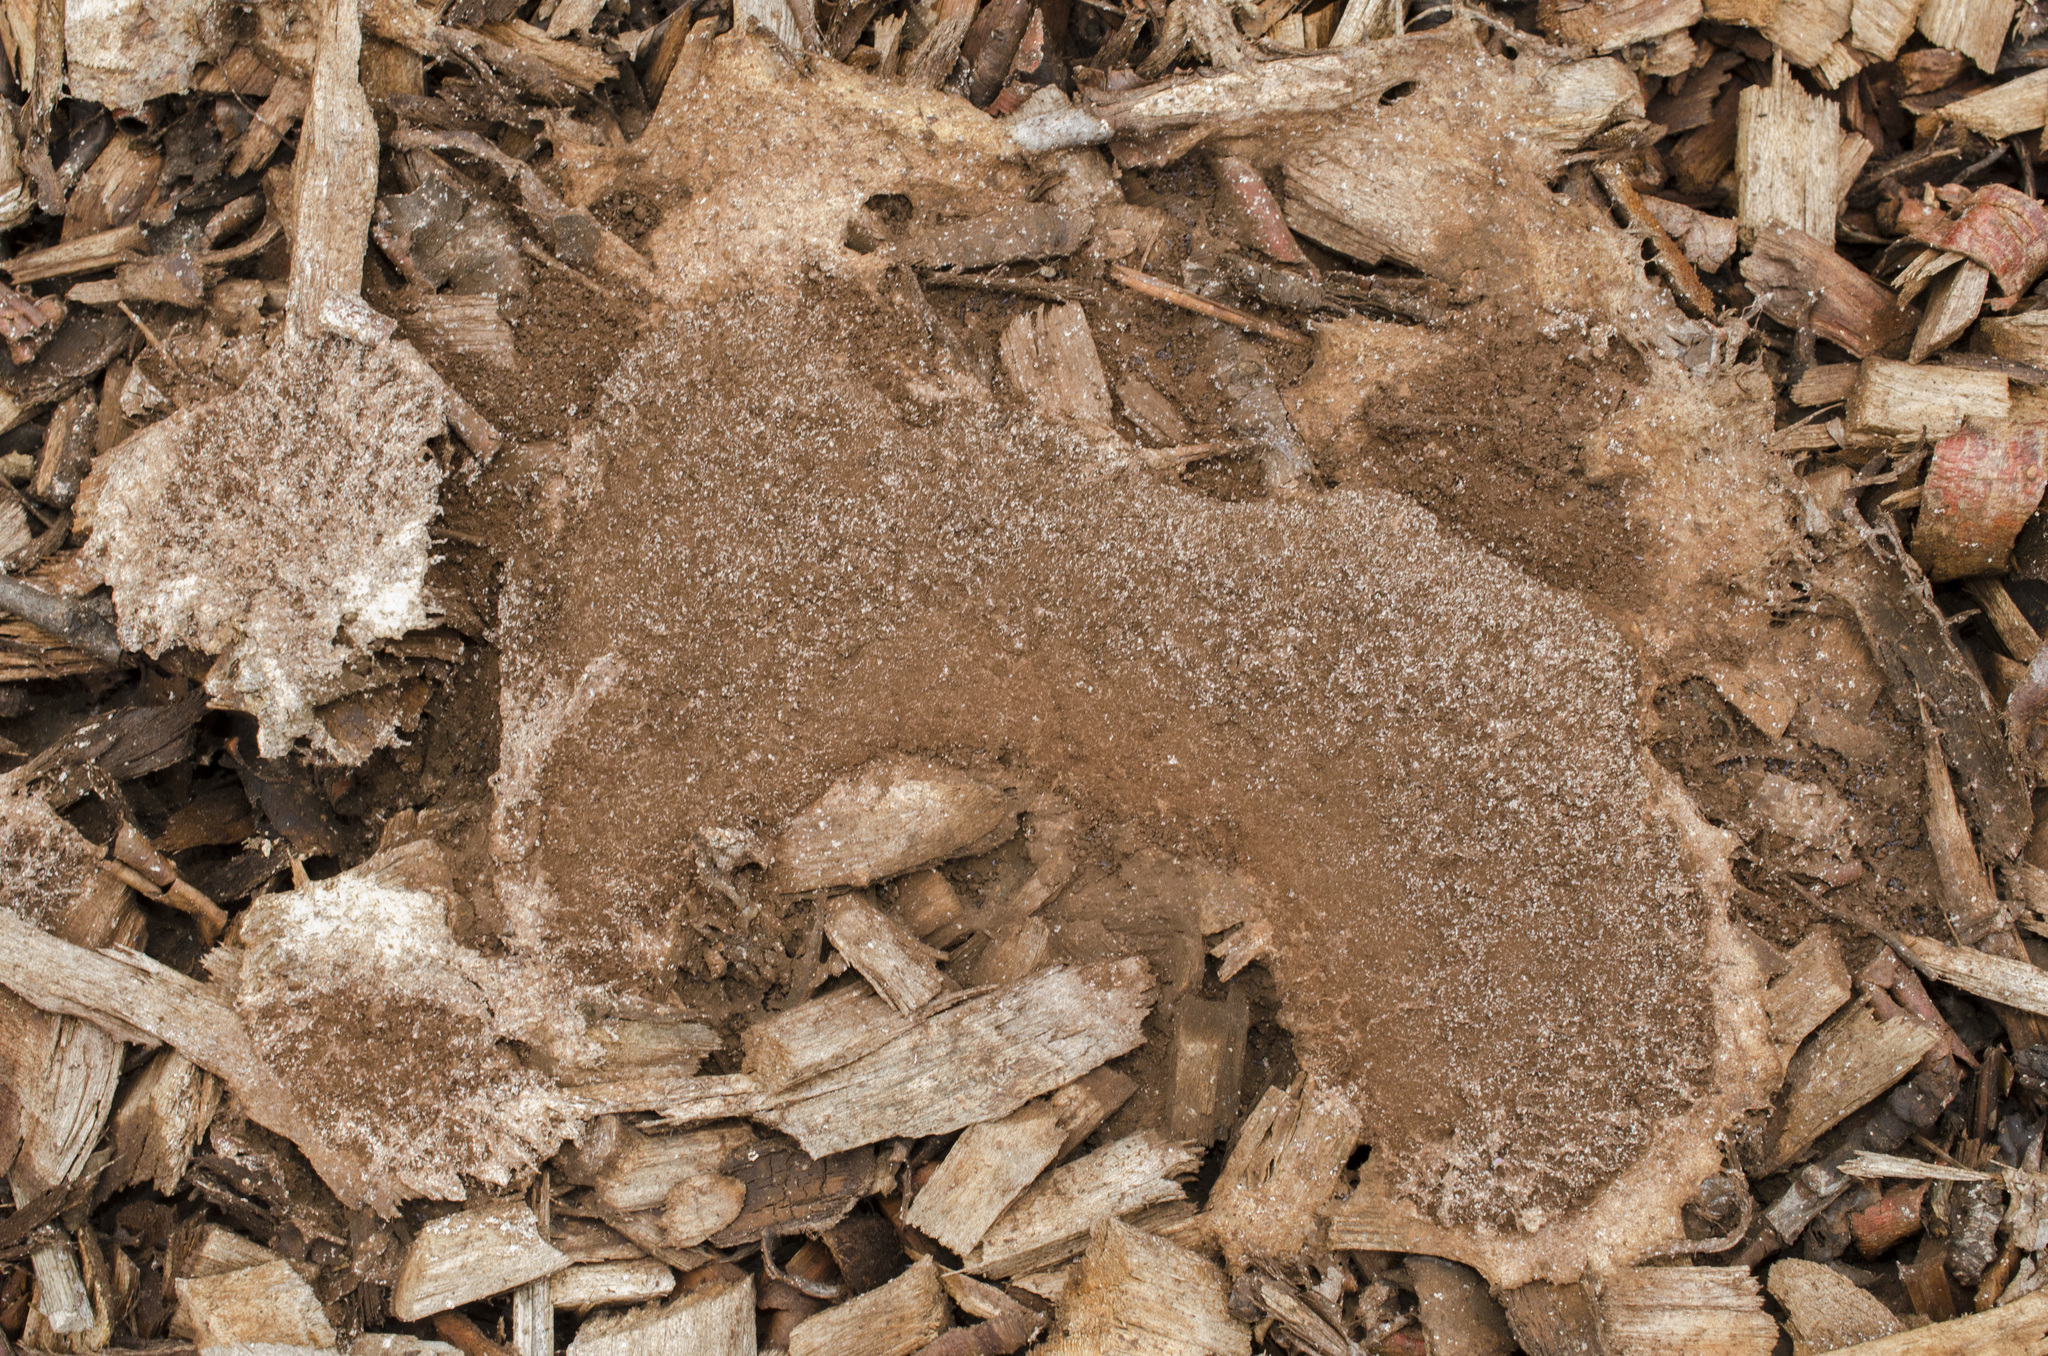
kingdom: Protozoa
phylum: Mycetozoa
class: Myxomycetes
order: Physarales
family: Physaraceae
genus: Fuligo
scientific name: Fuligo septica
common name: Dog vomit slime mold
